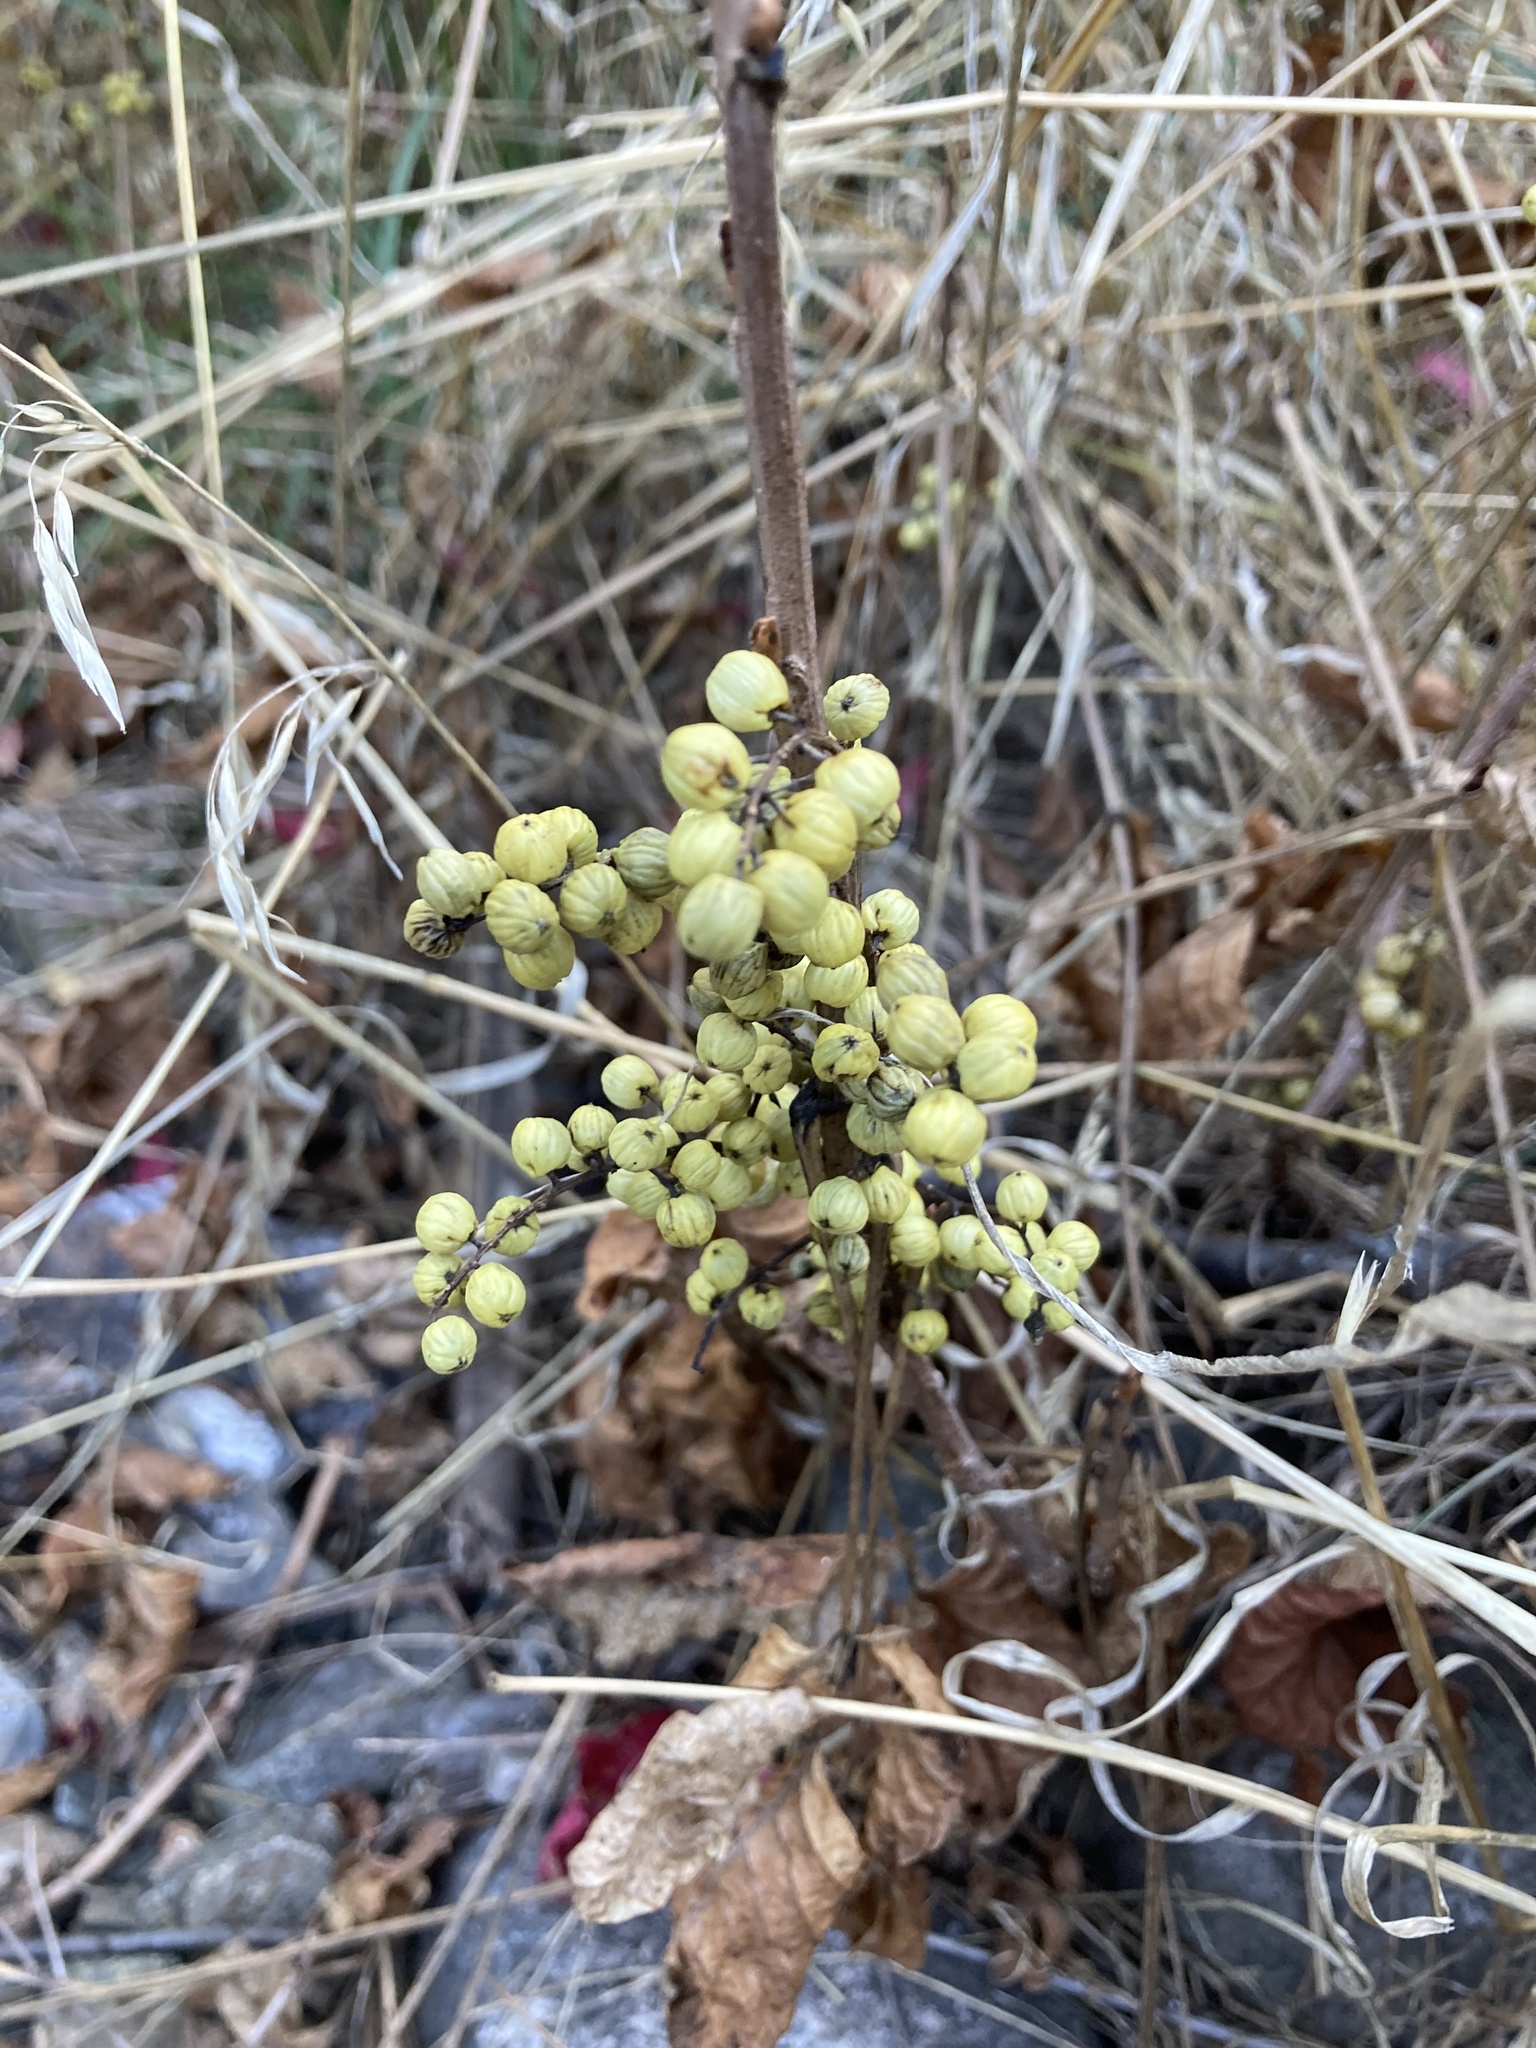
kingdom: Plantae
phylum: Tracheophyta
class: Magnoliopsida
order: Sapindales
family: Anacardiaceae
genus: Toxicodendron
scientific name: Toxicodendron rydbergii
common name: Rydberg's poison-ivy
